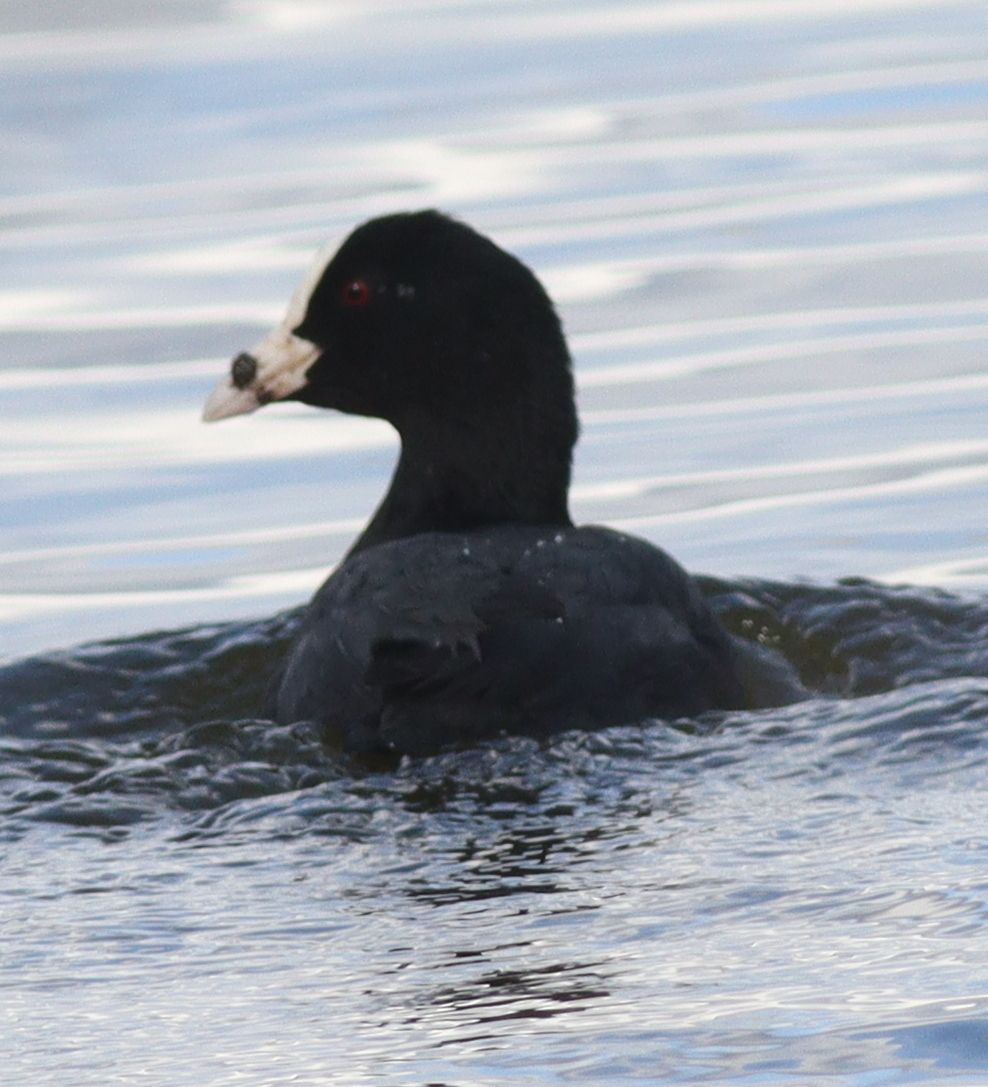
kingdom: Animalia
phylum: Chordata
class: Aves
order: Gruiformes
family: Rallidae
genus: Fulica
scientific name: Fulica atra
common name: Eurasian coot
